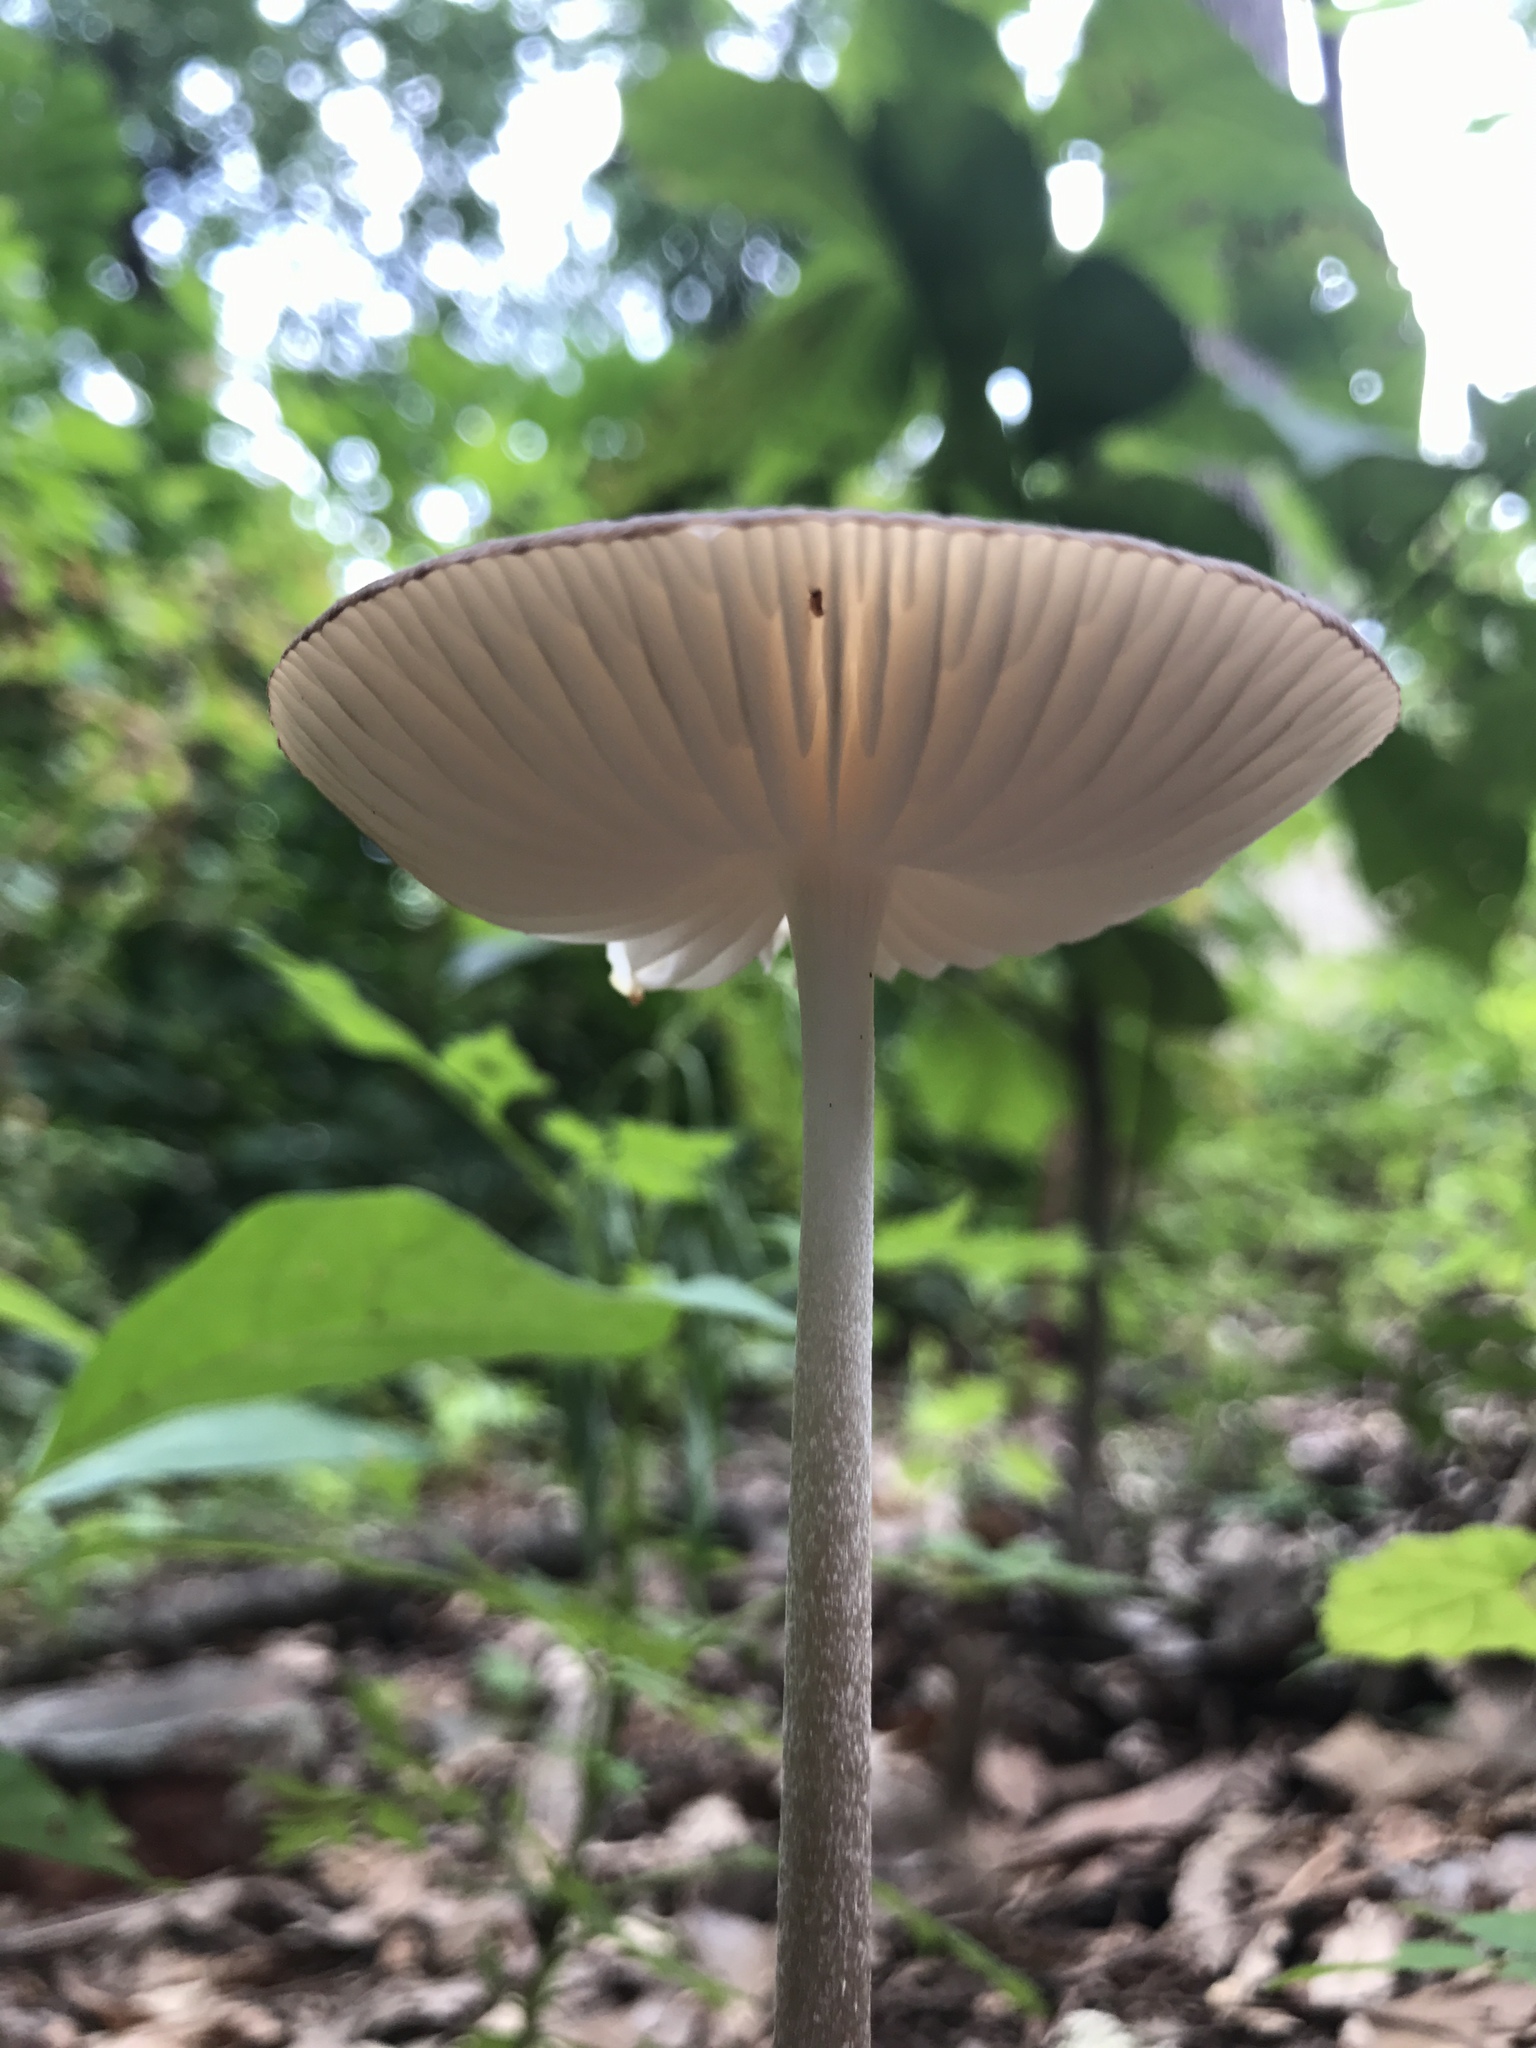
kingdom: Fungi
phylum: Basidiomycota
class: Agaricomycetes
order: Agaricales
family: Pluteaceae
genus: Pluteus
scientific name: Pluteus cervinus
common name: Deer shield
